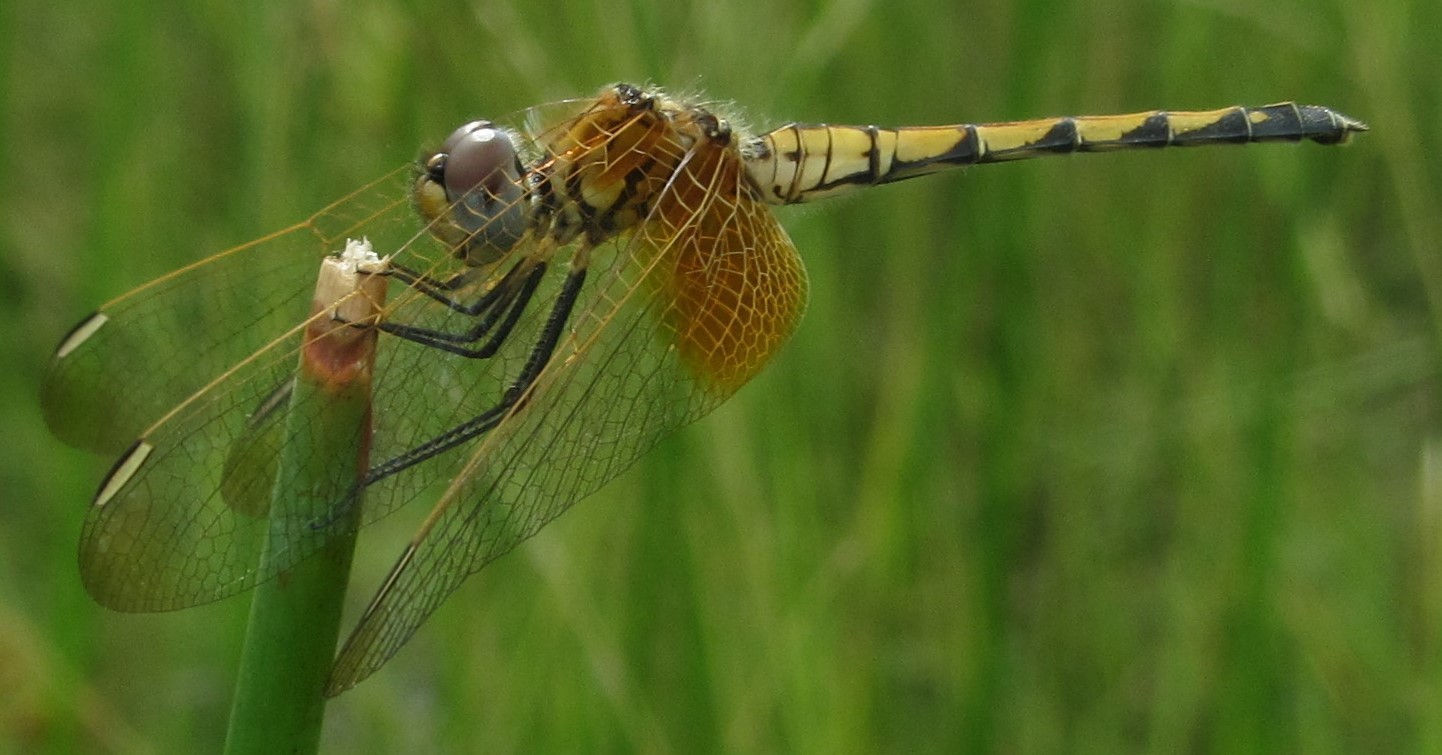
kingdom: Animalia
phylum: Arthropoda
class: Insecta
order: Odonata
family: Libellulidae
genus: Trithemis
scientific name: Trithemis monardi
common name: Monard's dropwing
